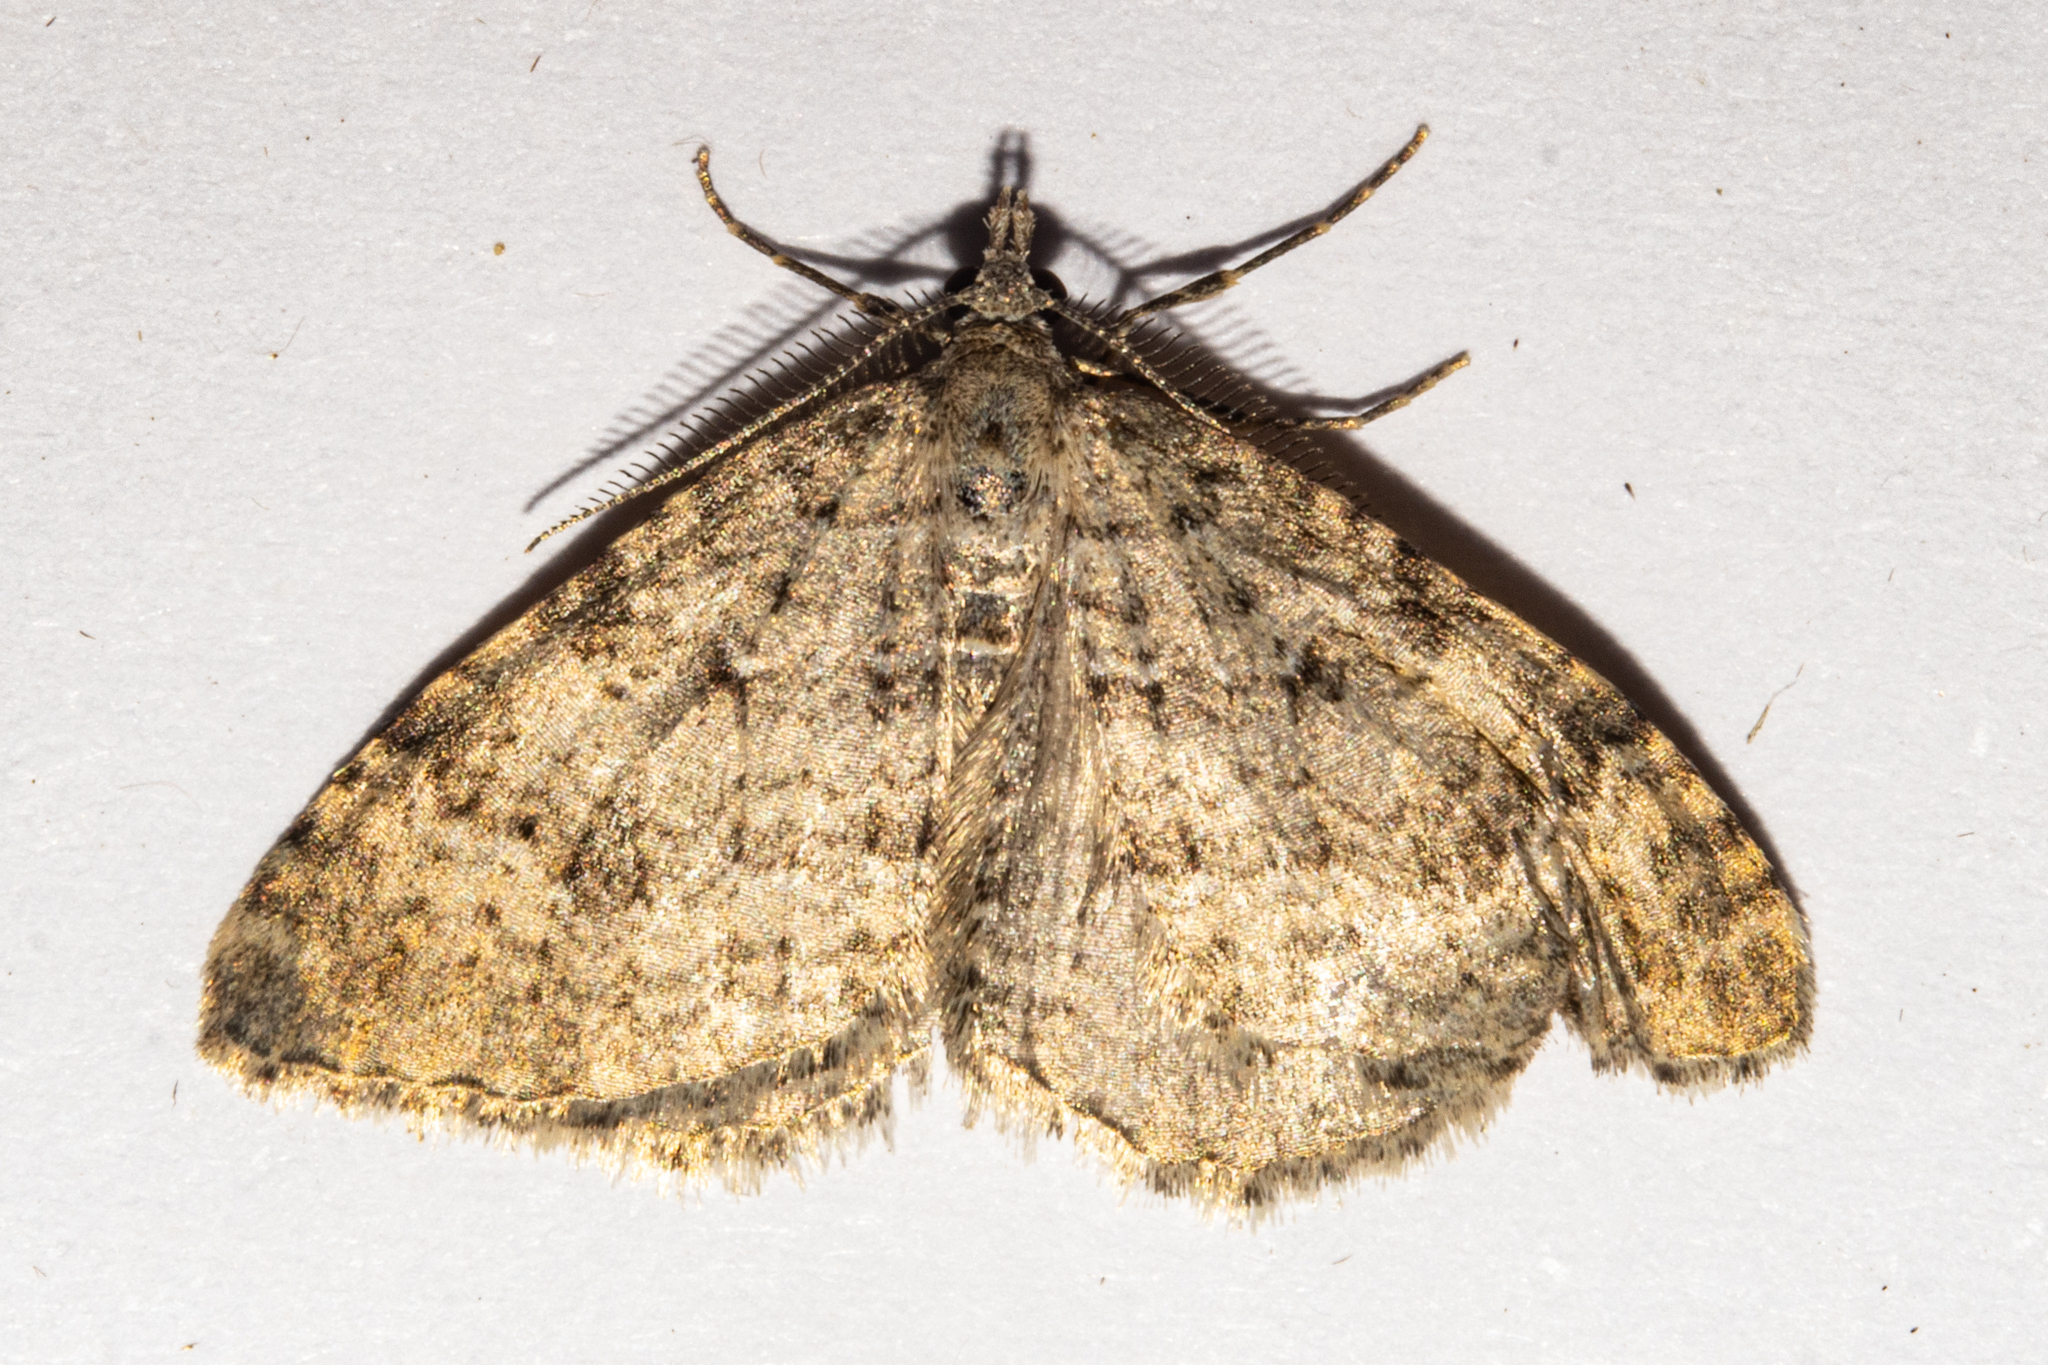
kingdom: Animalia
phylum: Arthropoda
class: Insecta
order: Lepidoptera
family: Geometridae
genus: Helastia
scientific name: Helastia corcularia
